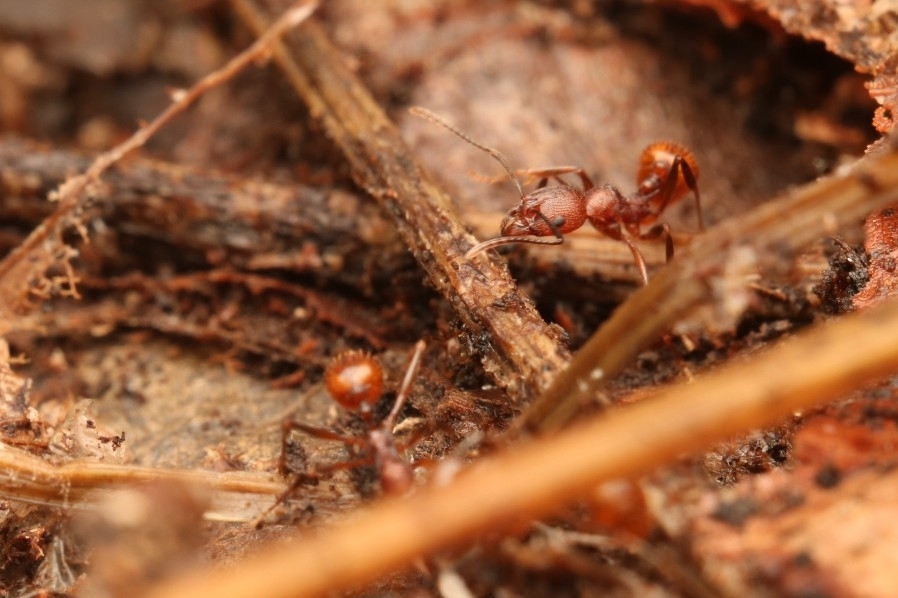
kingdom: Animalia
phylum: Arthropoda
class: Insecta
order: Hymenoptera
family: Formicidae
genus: Aphaenogaster
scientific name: Aphaenogaster tennesseensis
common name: Tennessee thread-waisted ant
